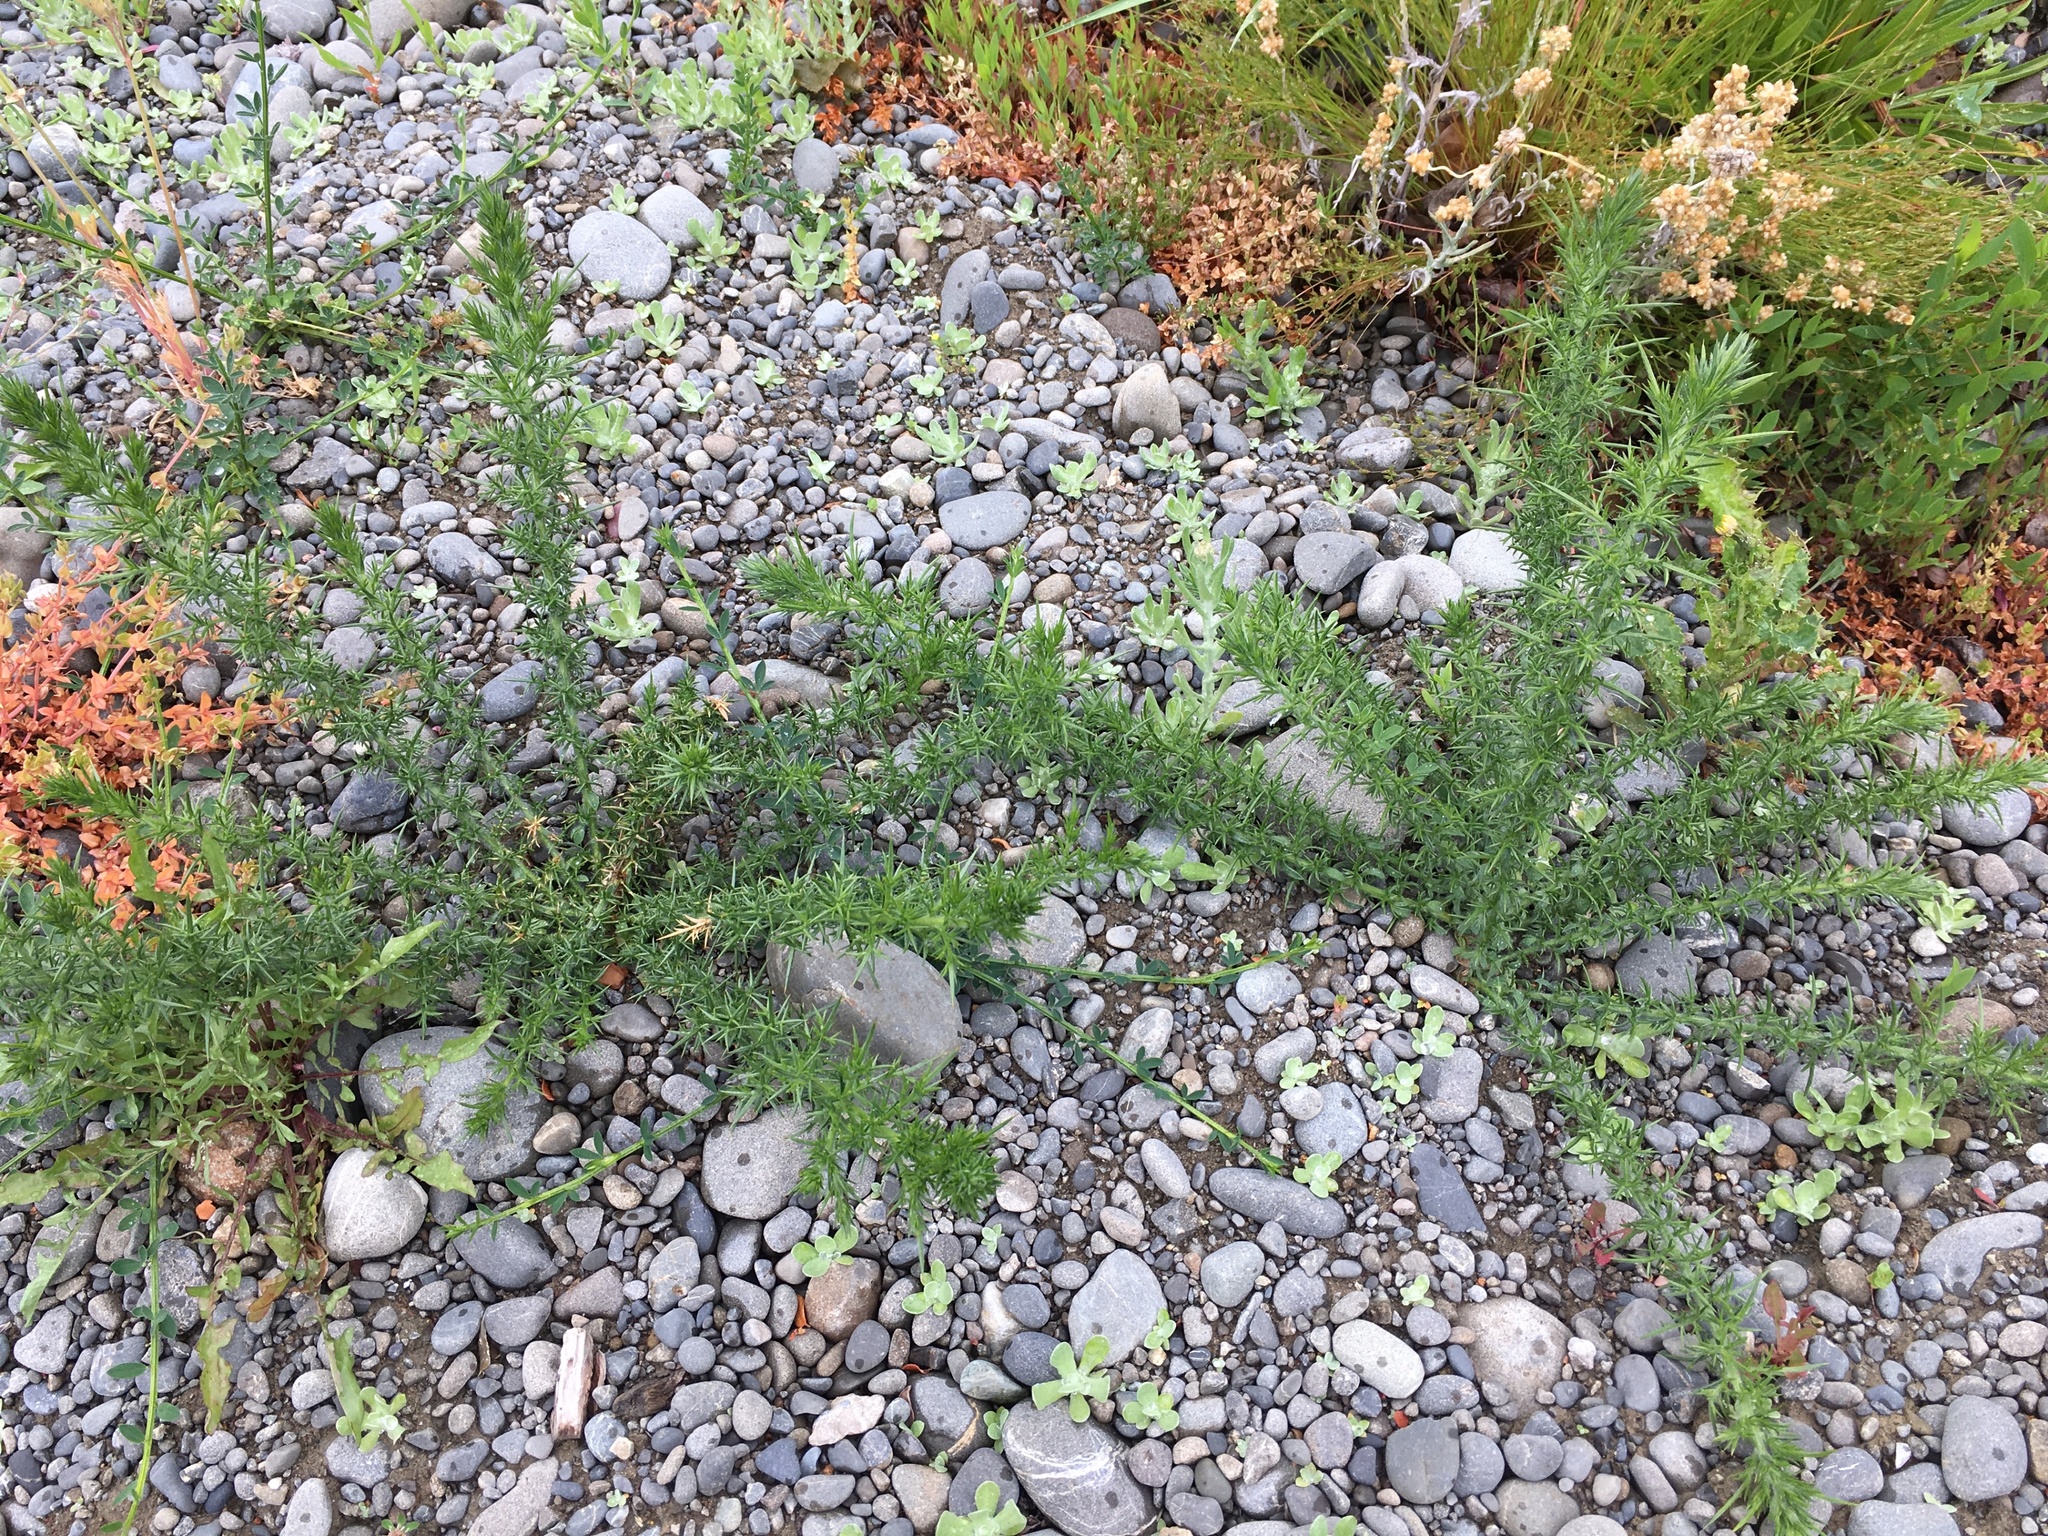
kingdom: Plantae
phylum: Tracheophyta
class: Magnoliopsida
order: Fabales
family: Fabaceae
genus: Ulex
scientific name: Ulex europaeus
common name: Common gorse
